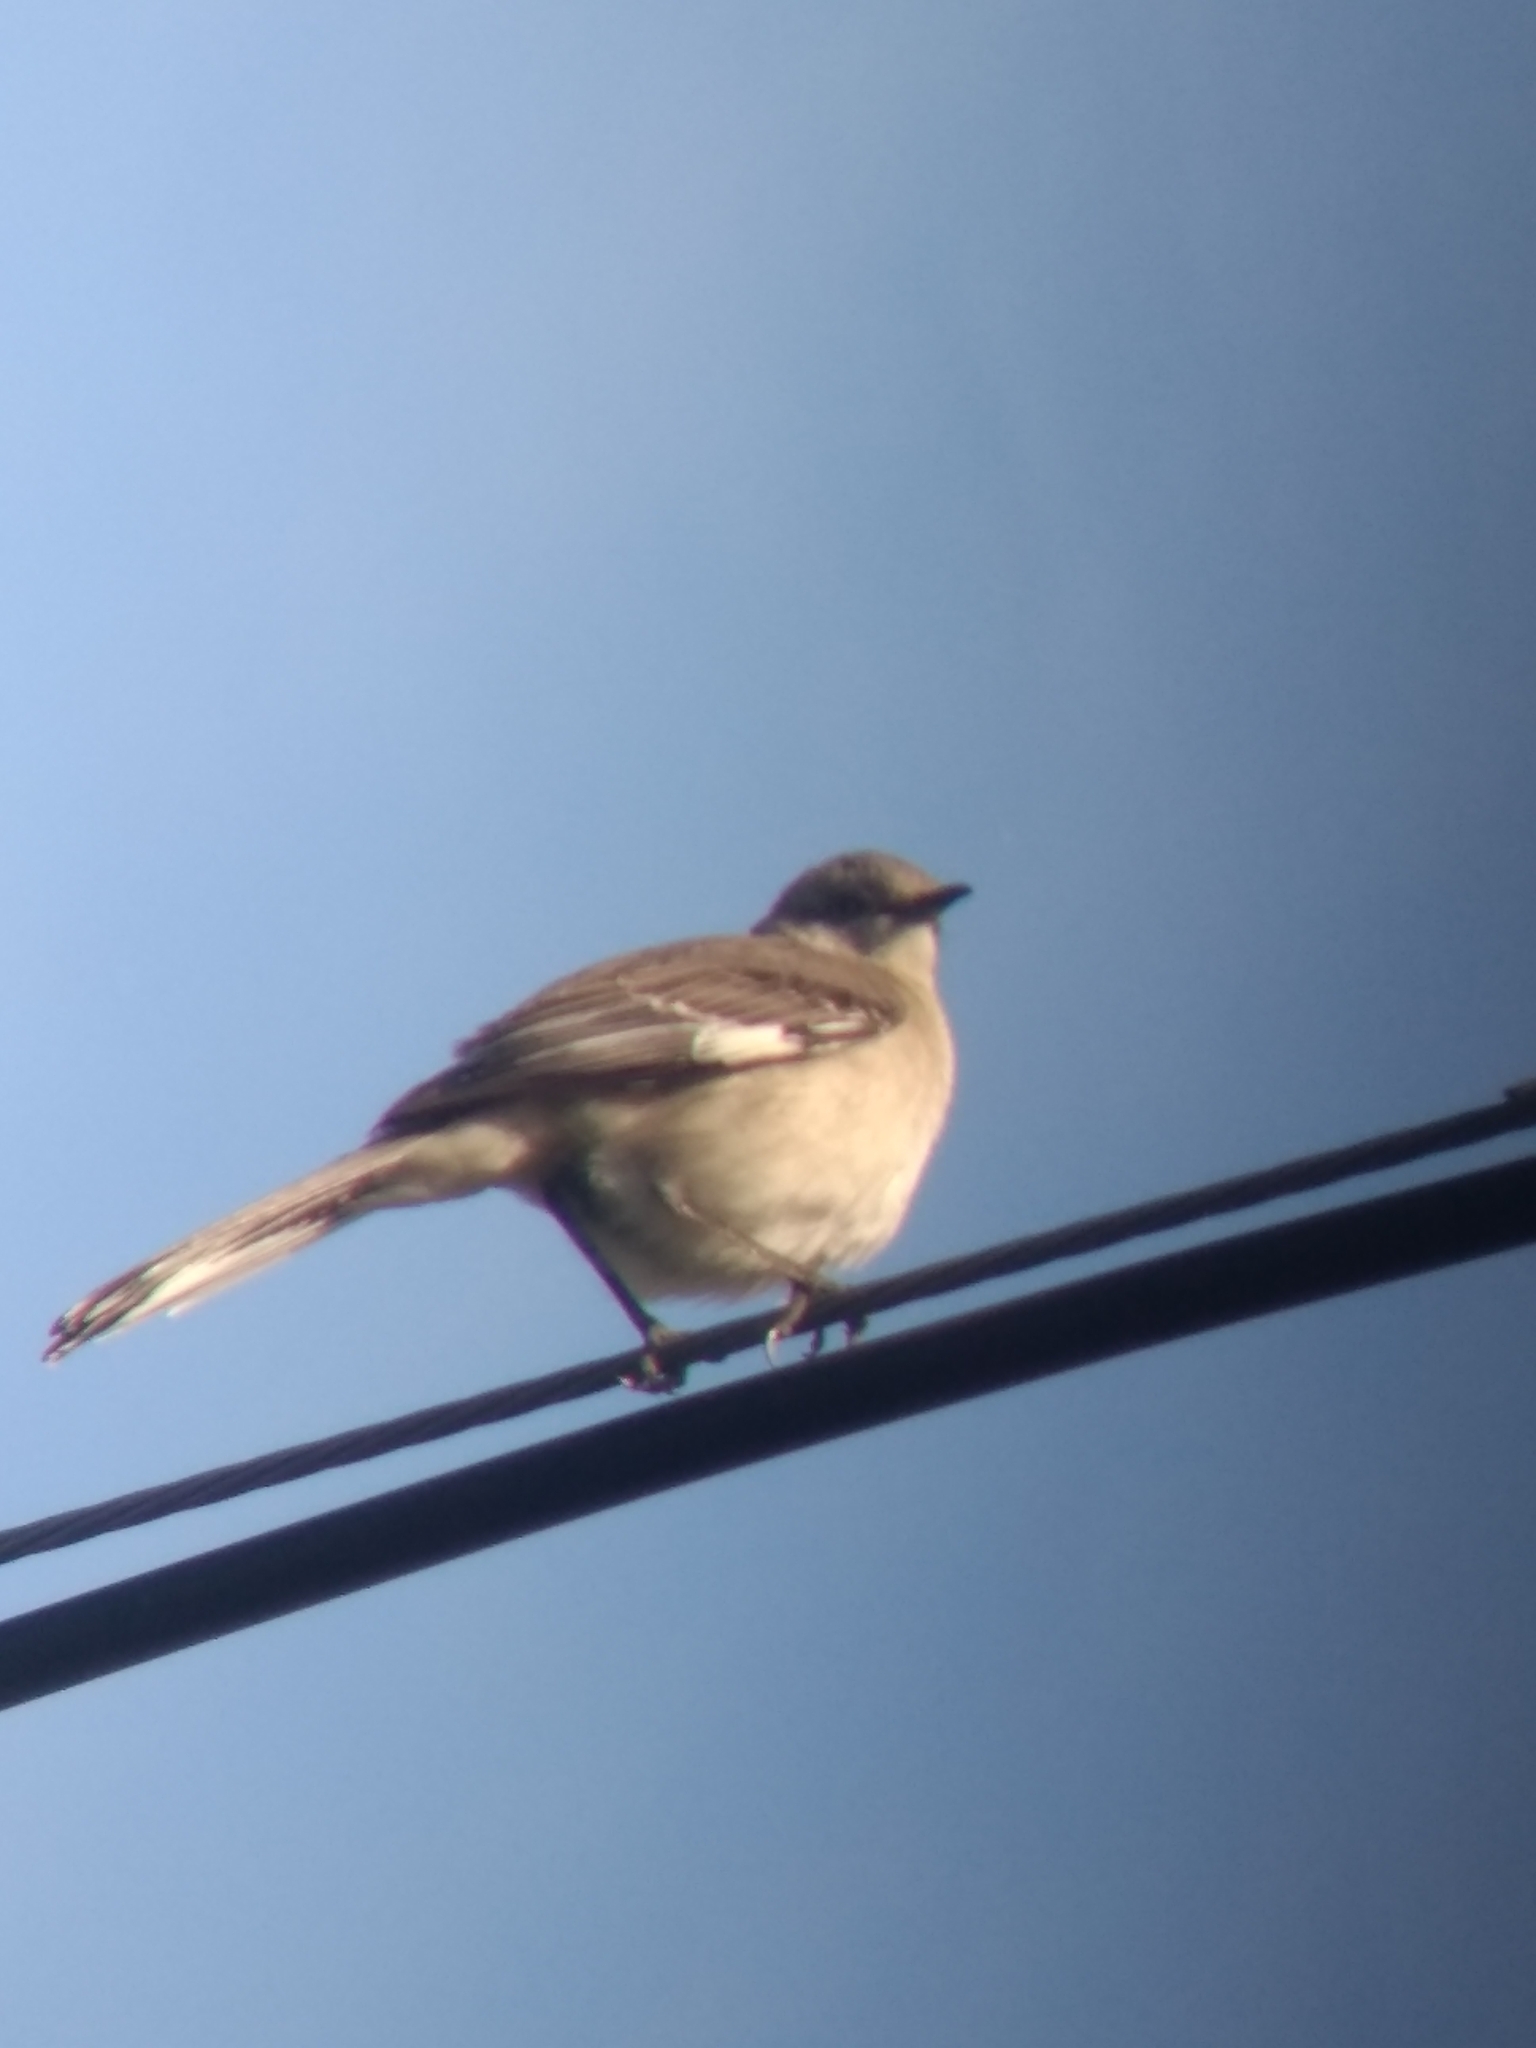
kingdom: Animalia
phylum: Chordata
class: Aves
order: Passeriformes
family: Mimidae
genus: Mimus
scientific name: Mimus polyglottos
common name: Northern mockingbird
